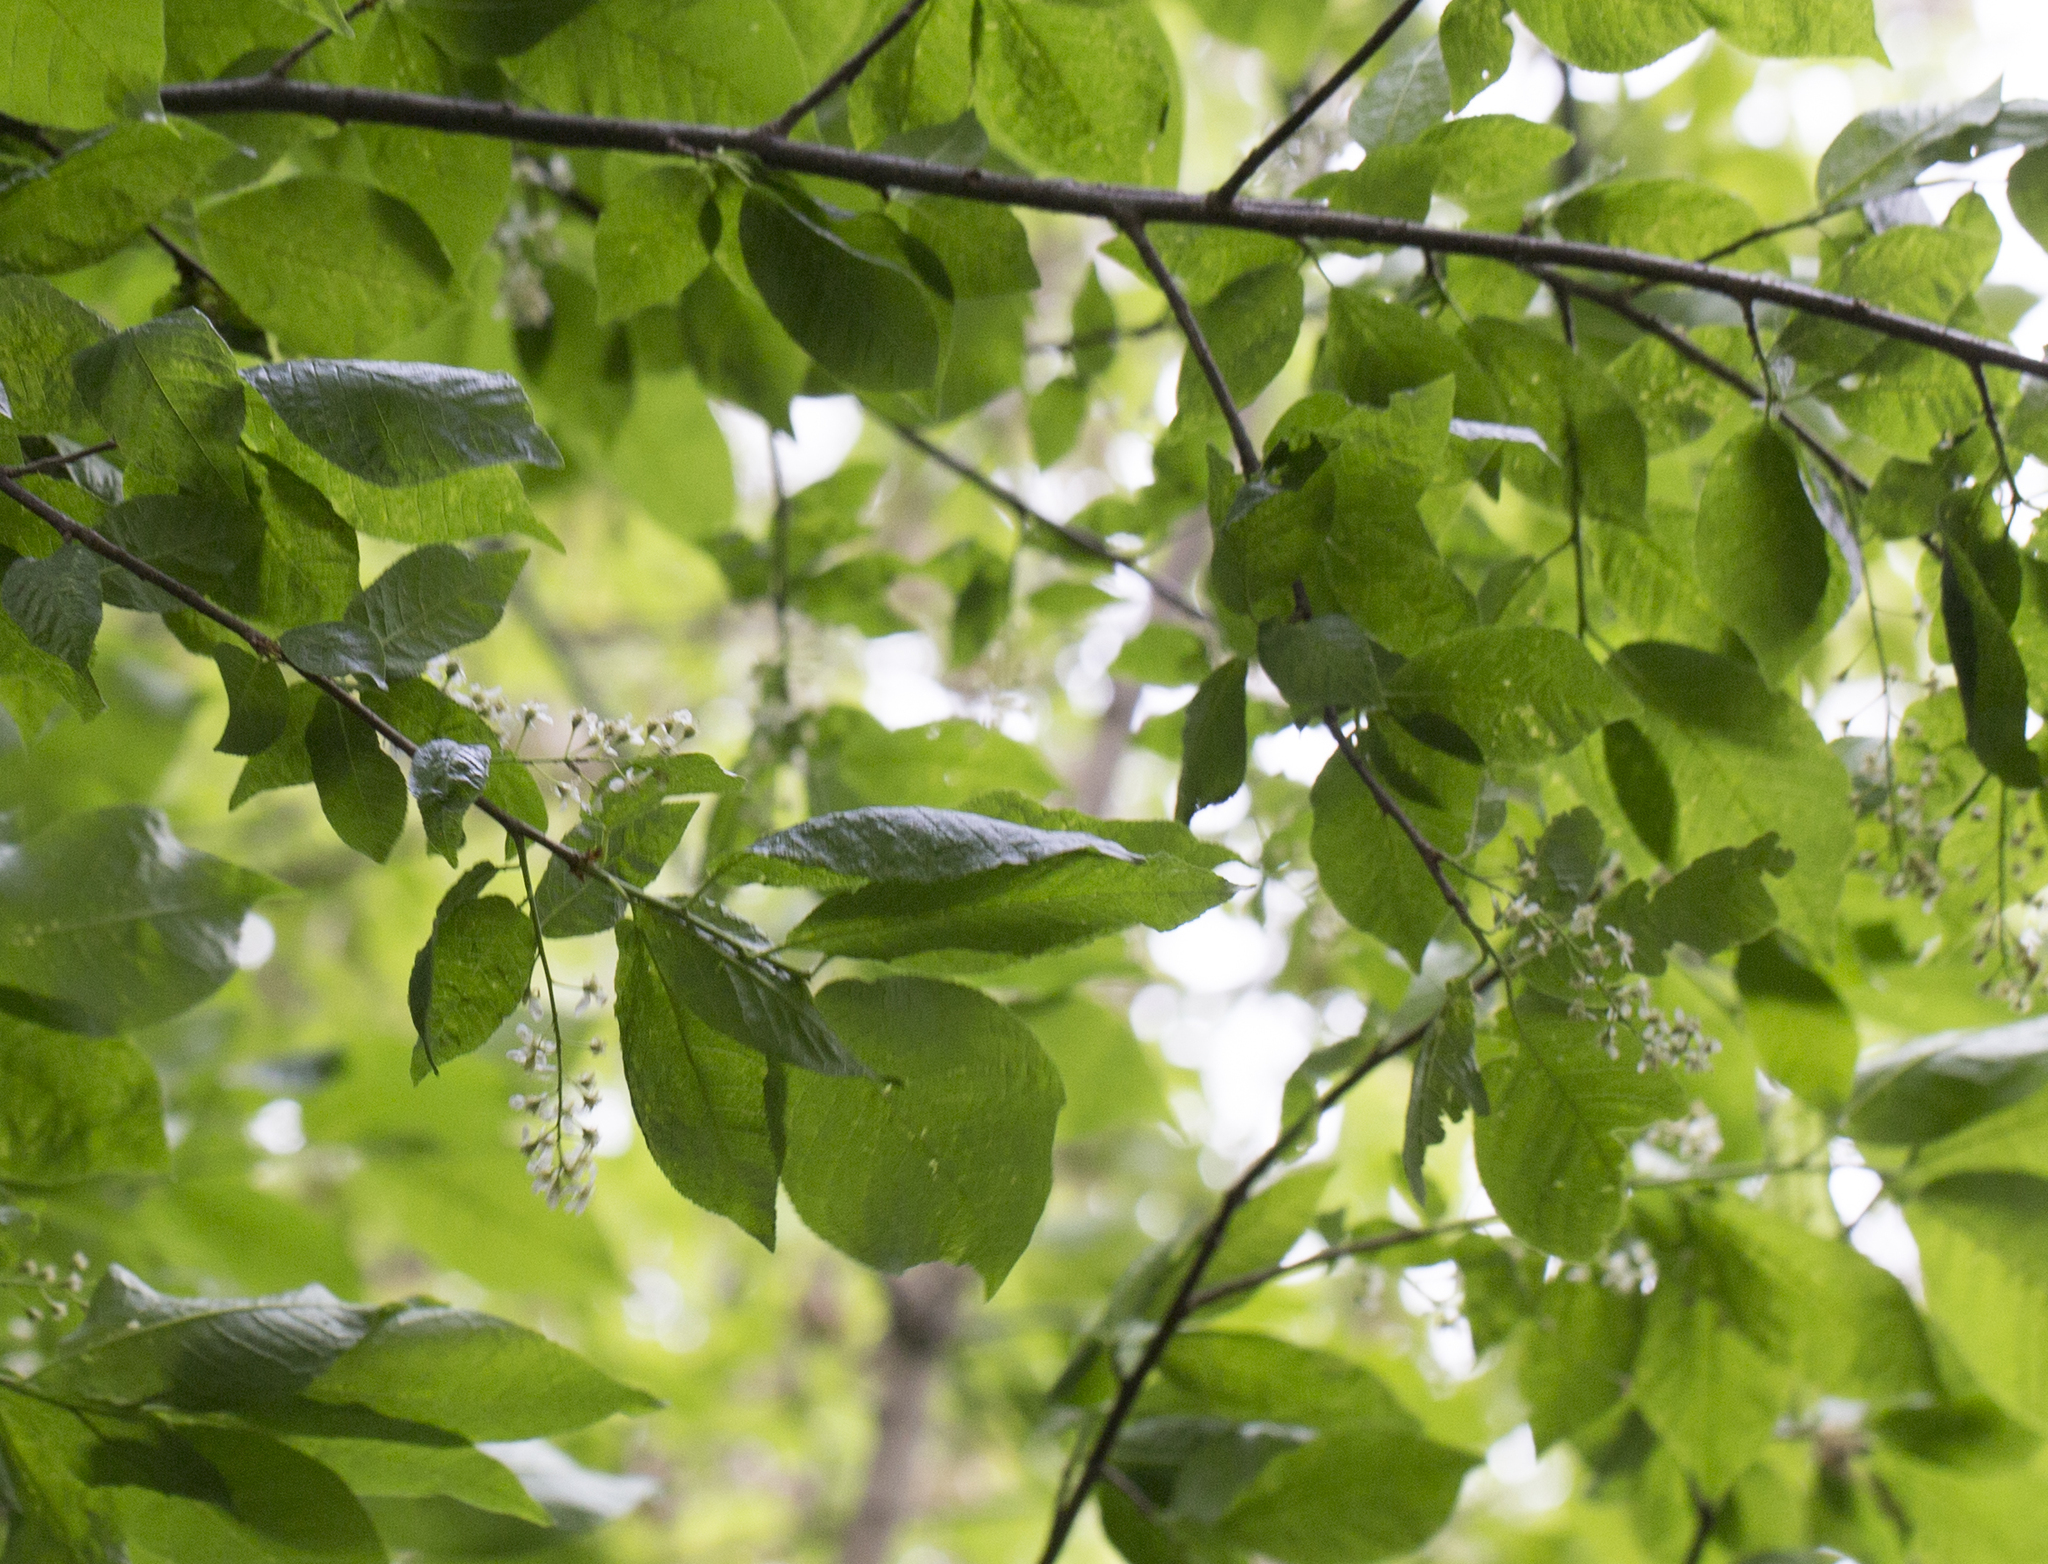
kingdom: Plantae
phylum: Tracheophyta
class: Magnoliopsida
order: Rosales
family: Rosaceae
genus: Prunus
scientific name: Prunus padus
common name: Bird cherry
